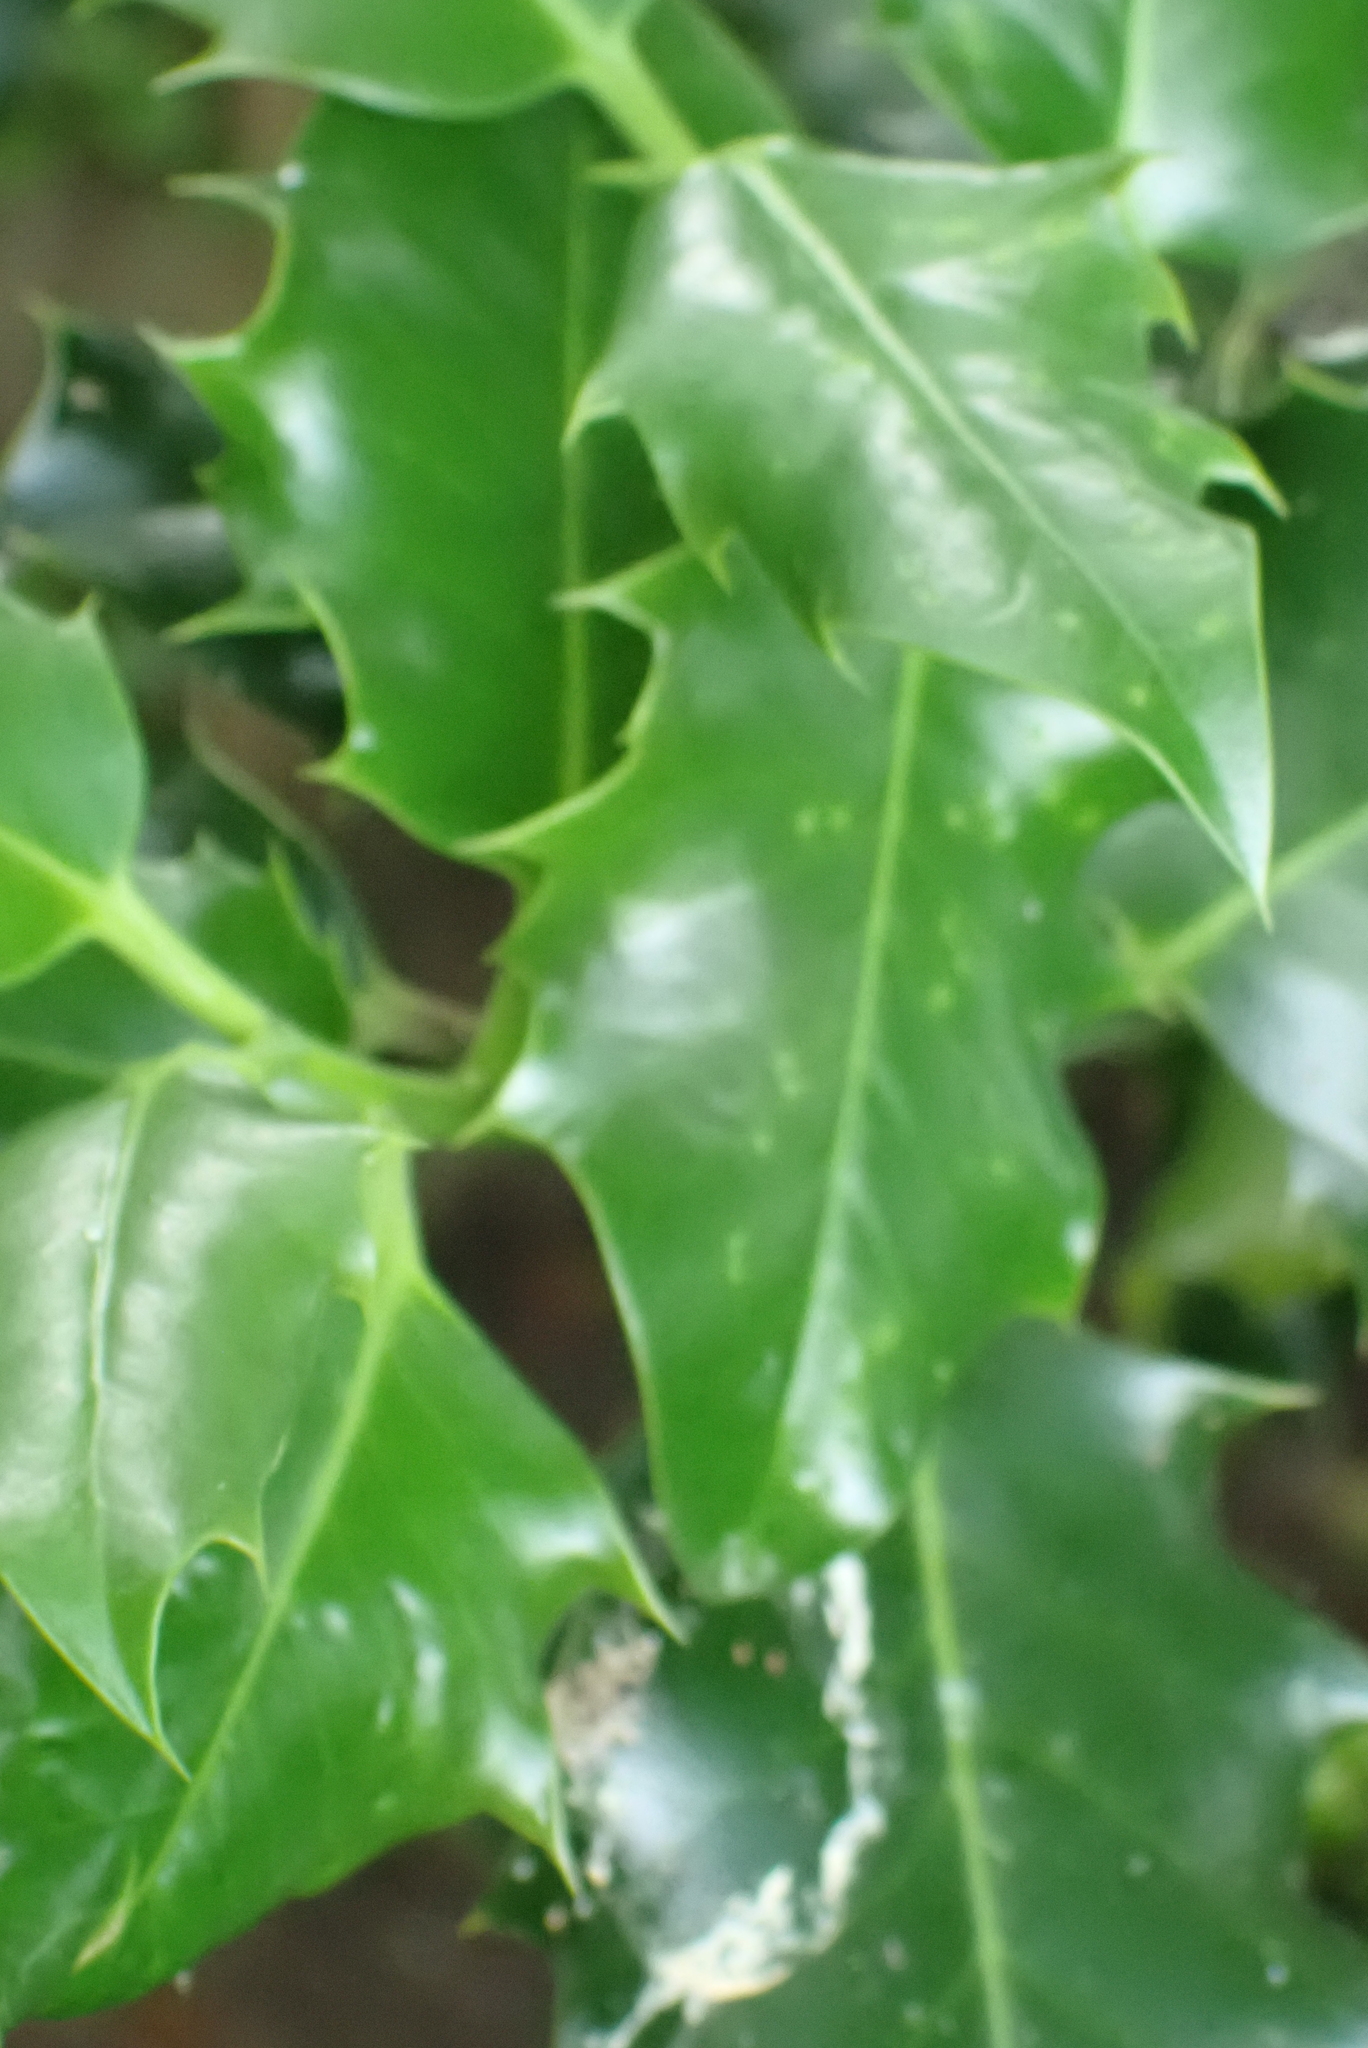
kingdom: Plantae
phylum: Tracheophyta
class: Magnoliopsida
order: Aquifoliales
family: Aquifoliaceae
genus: Ilex
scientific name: Ilex aquifolium
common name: English holly
